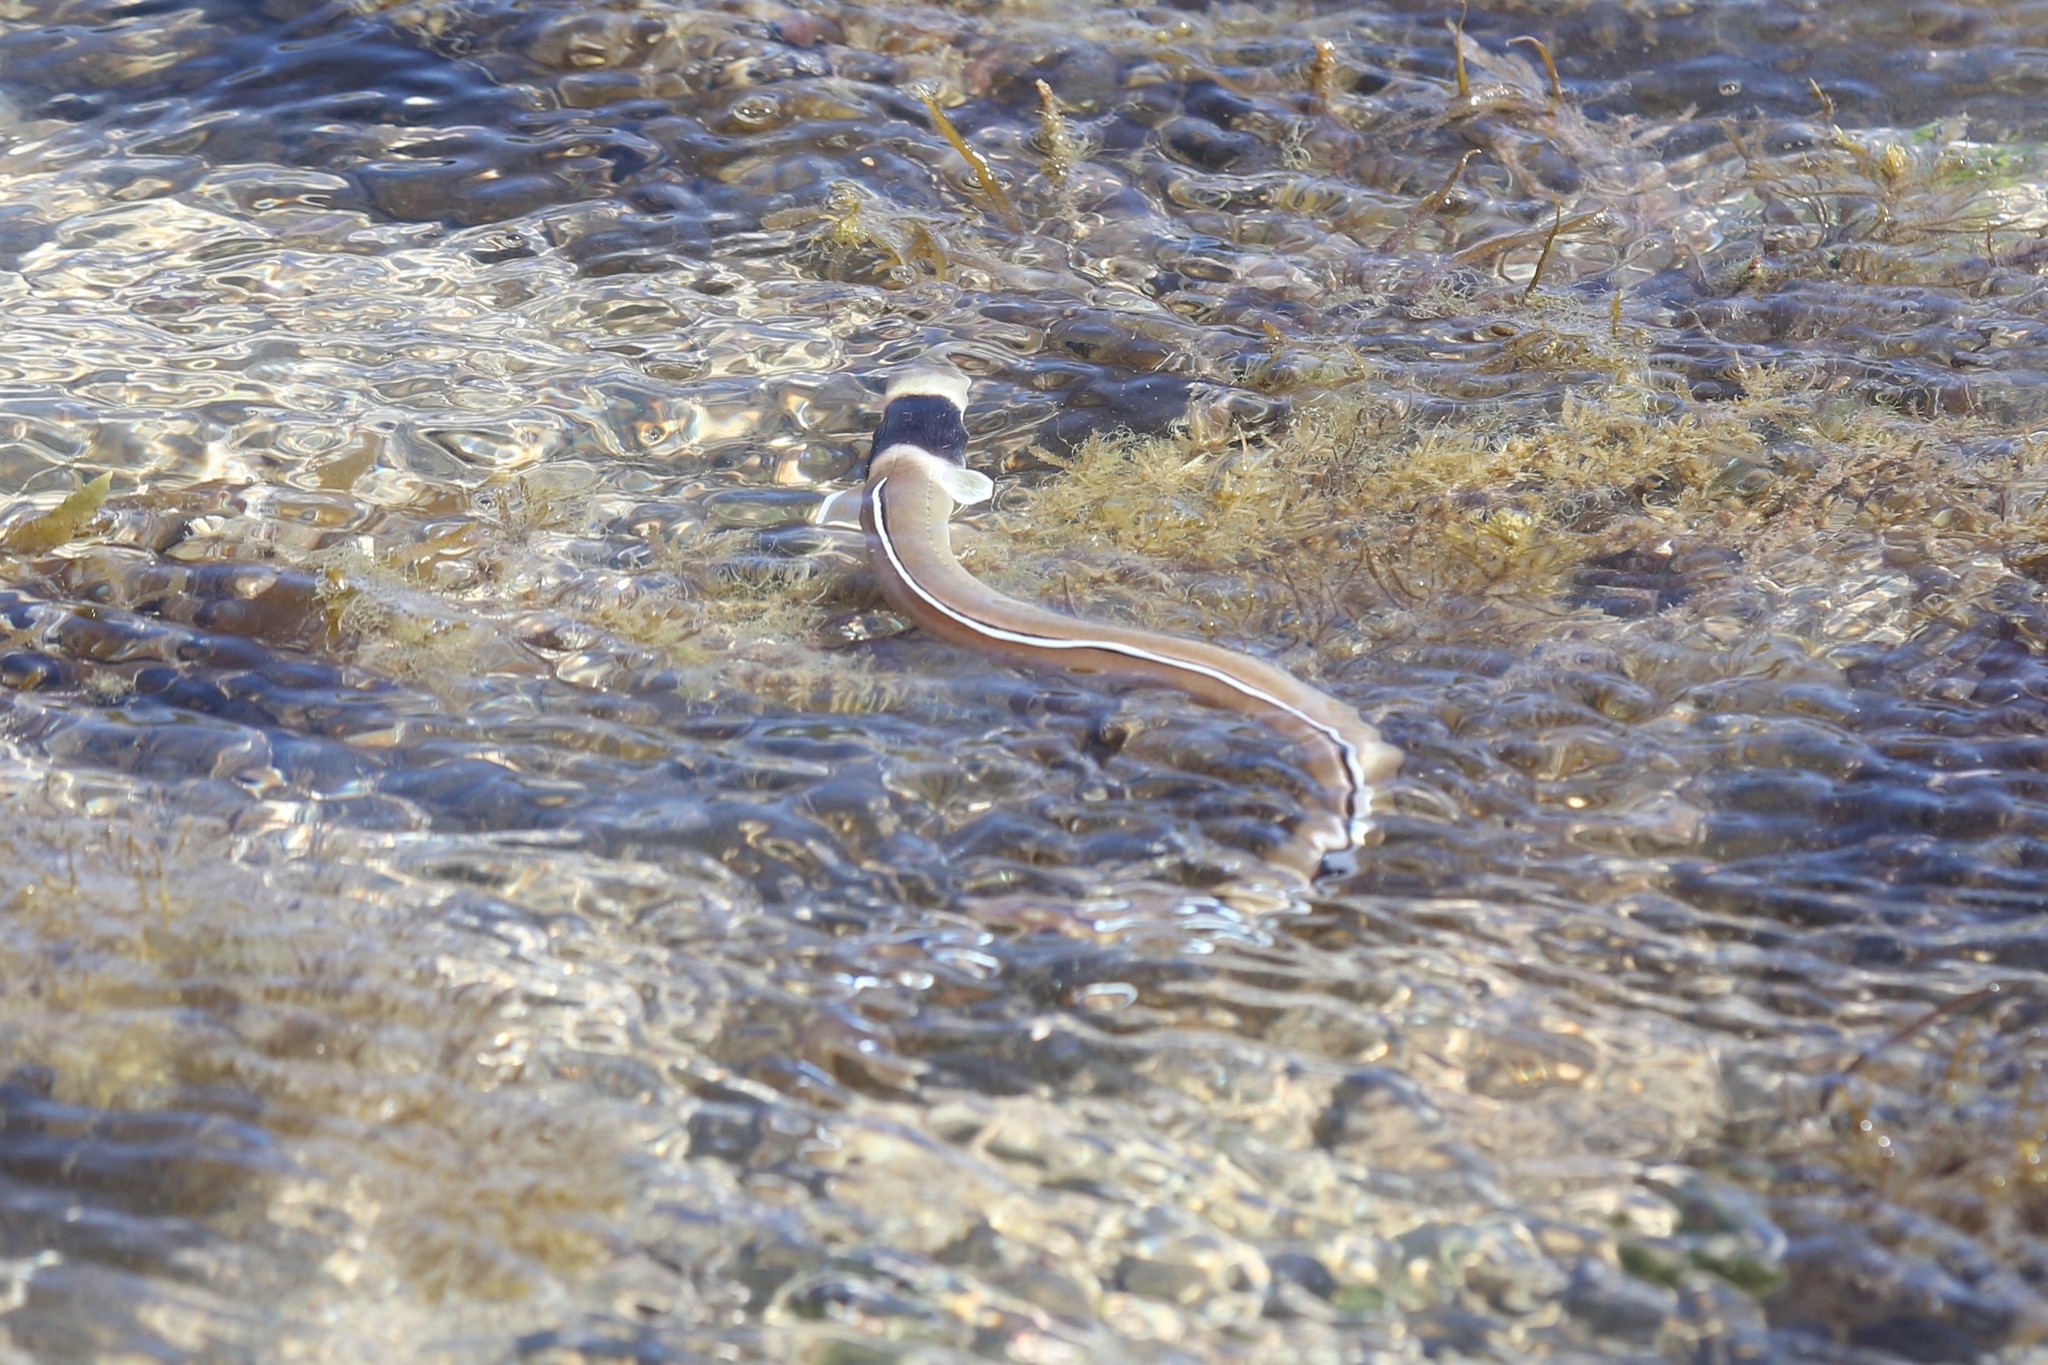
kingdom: Animalia
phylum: Chordata
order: Anguilliformes
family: Ophichthidae
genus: Ophichthus
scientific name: Ophichthus cephalozona
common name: Dark-shouldered snake eel
